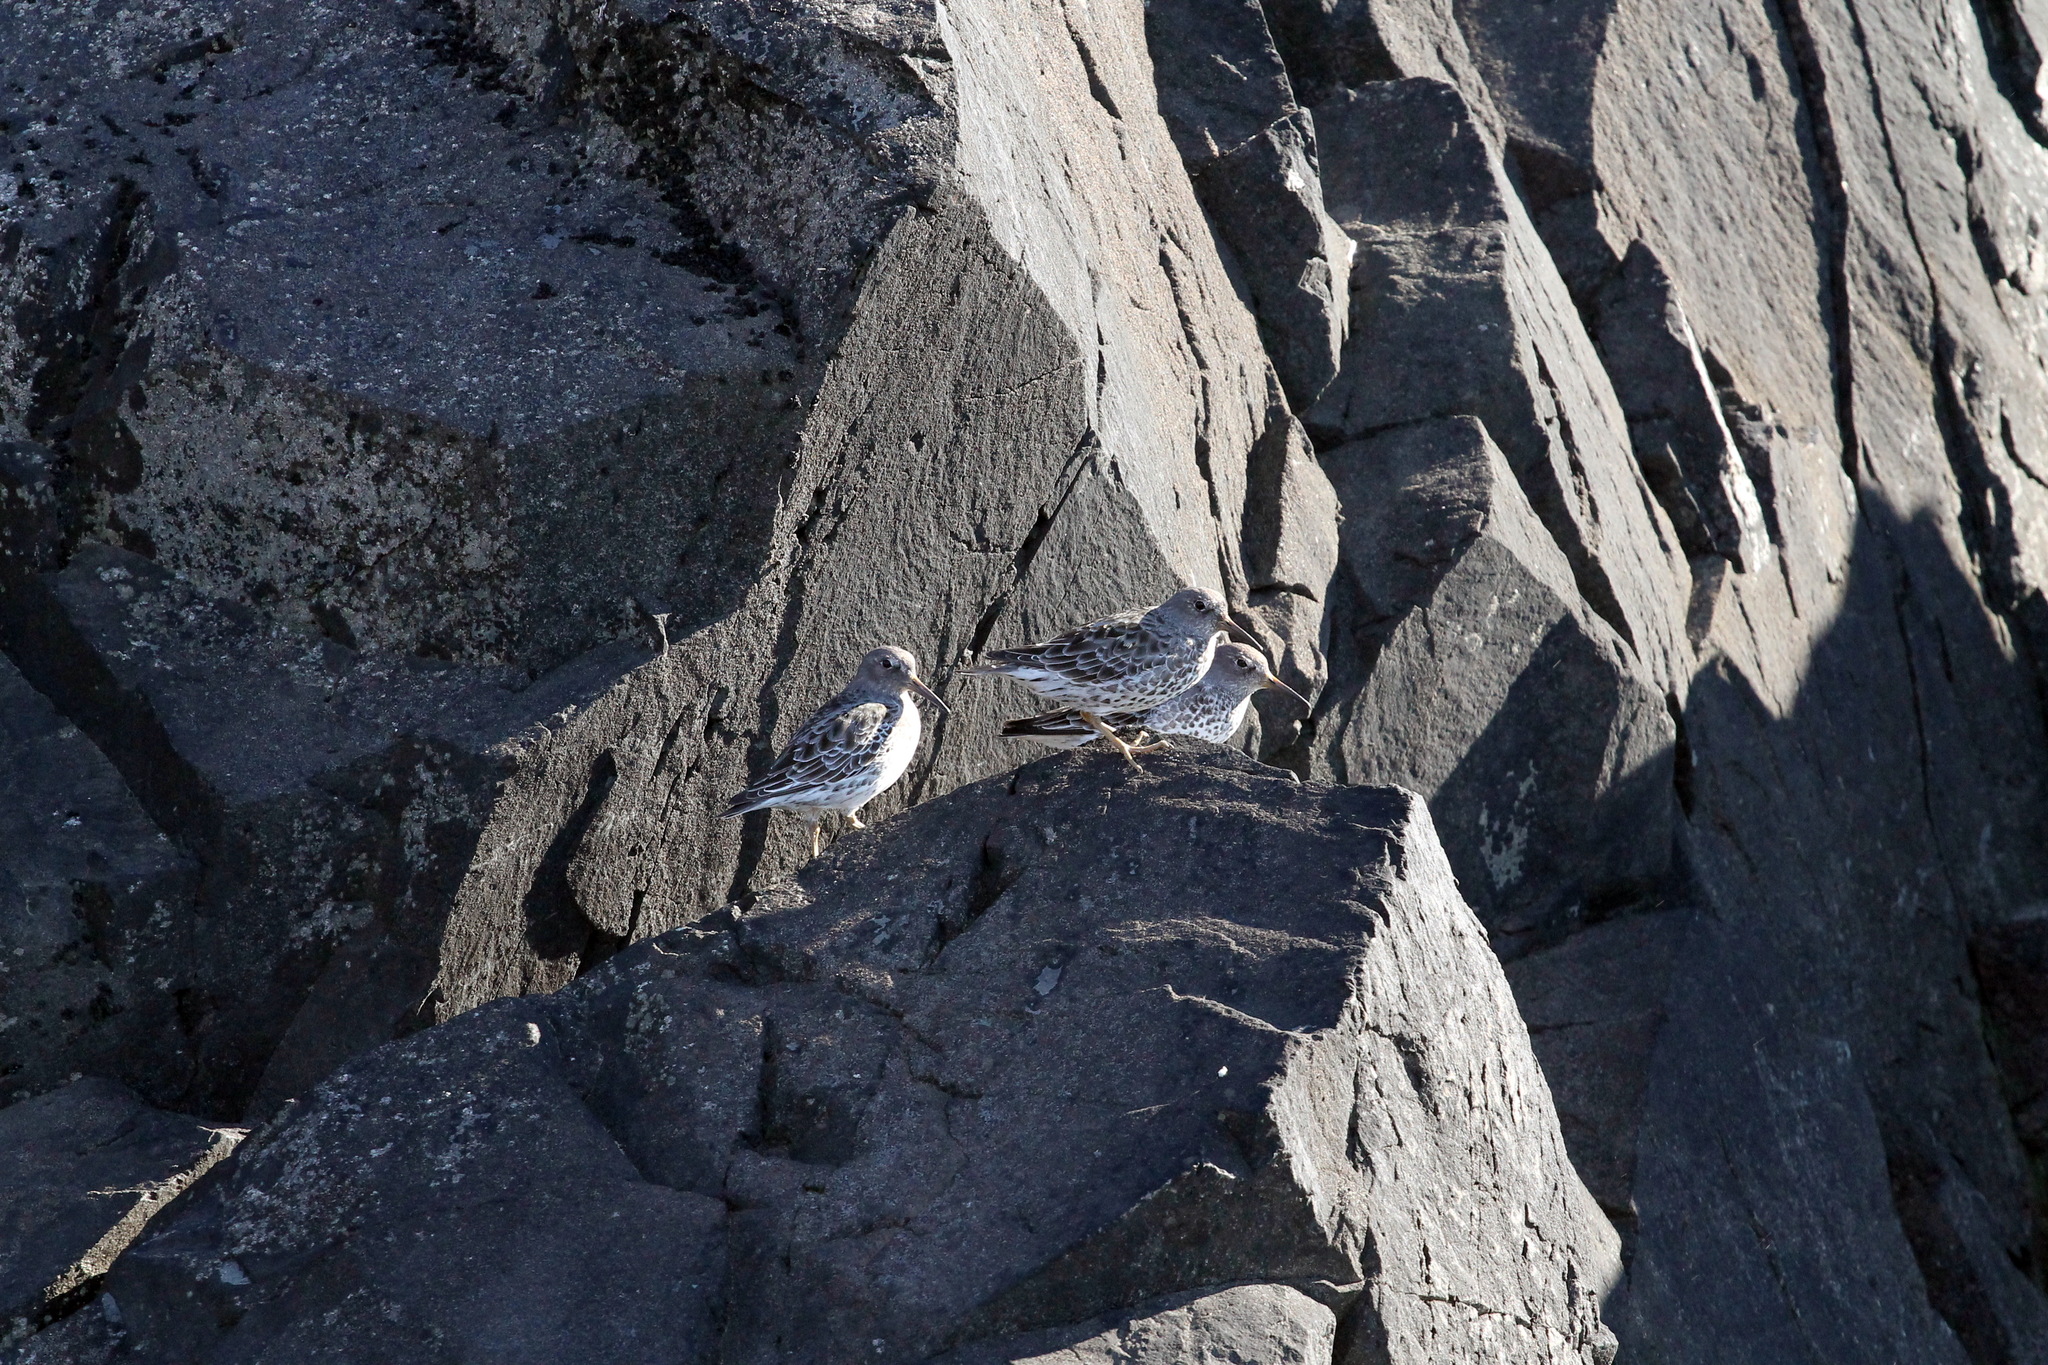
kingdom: Animalia
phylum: Chordata
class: Aves
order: Charadriiformes
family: Scolopacidae
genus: Calidris
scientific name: Calidris ptilocnemis
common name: Rock sandpiper
